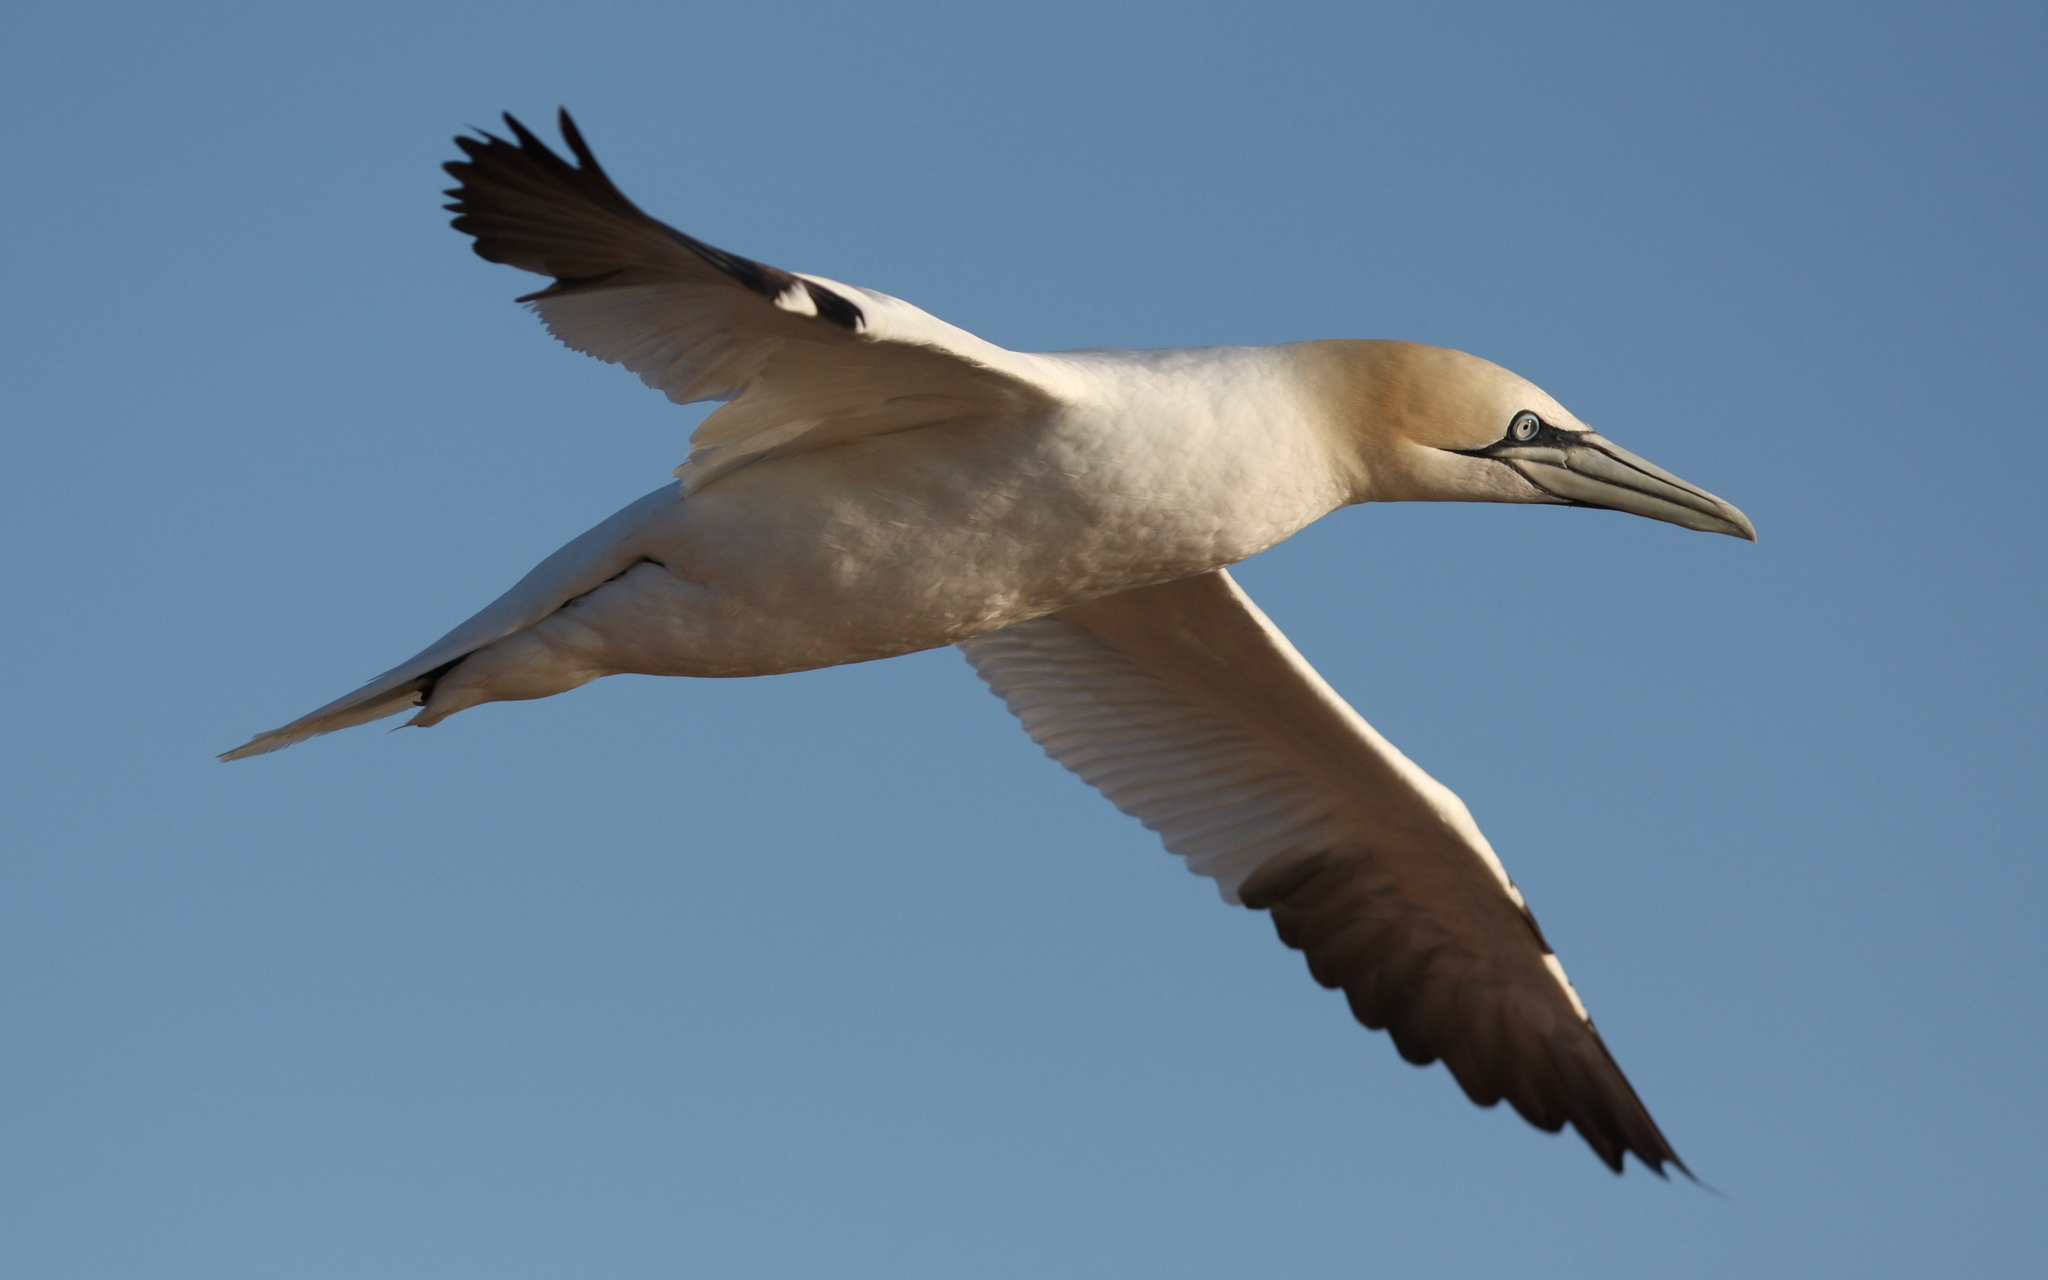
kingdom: Animalia
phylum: Chordata
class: Aves
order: Suliformes
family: Sulidae
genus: Morus
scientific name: Morus bassanus
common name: Northern gannet
